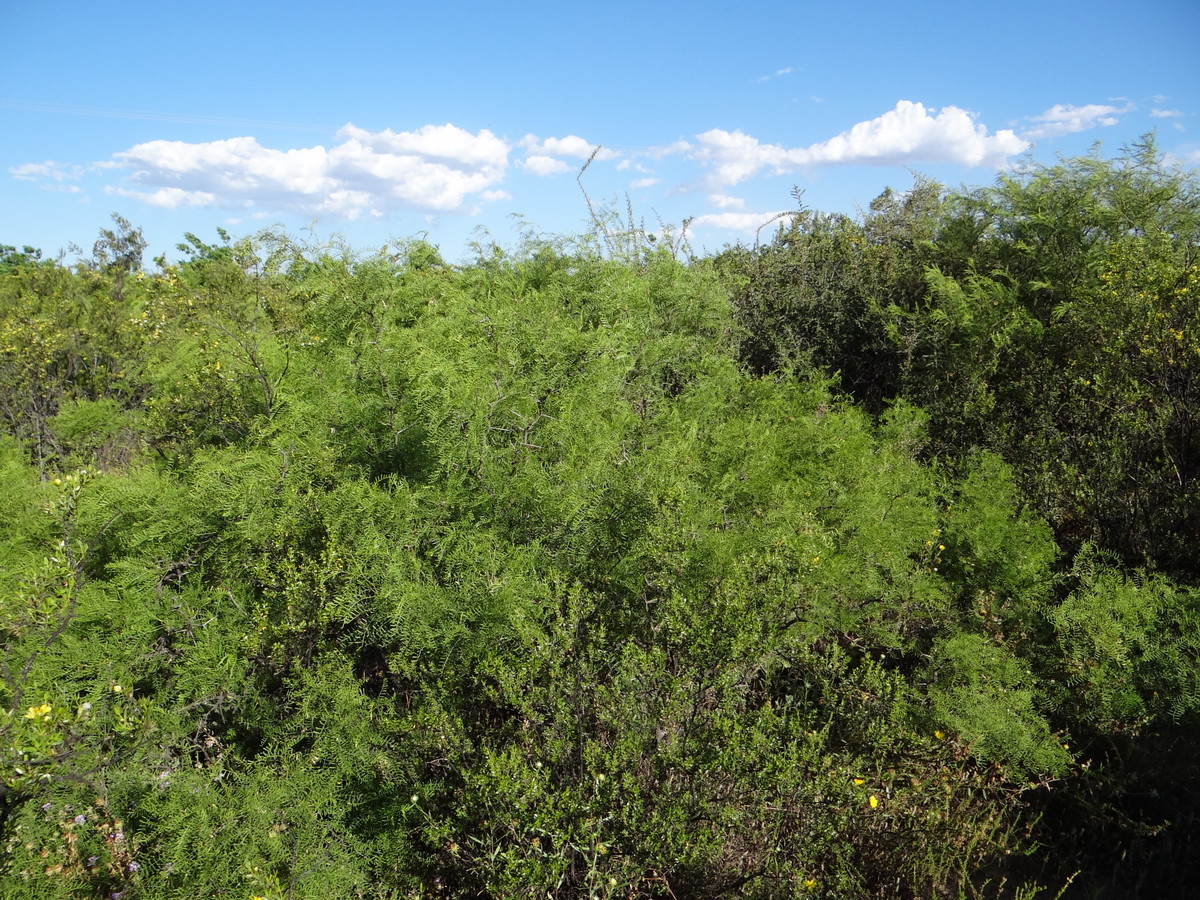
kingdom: Plantae
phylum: Tracheophyta
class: Magnoliopsida
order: Fabales
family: Fabaceae
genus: Prosopis
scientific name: Prosopis flexuosa
